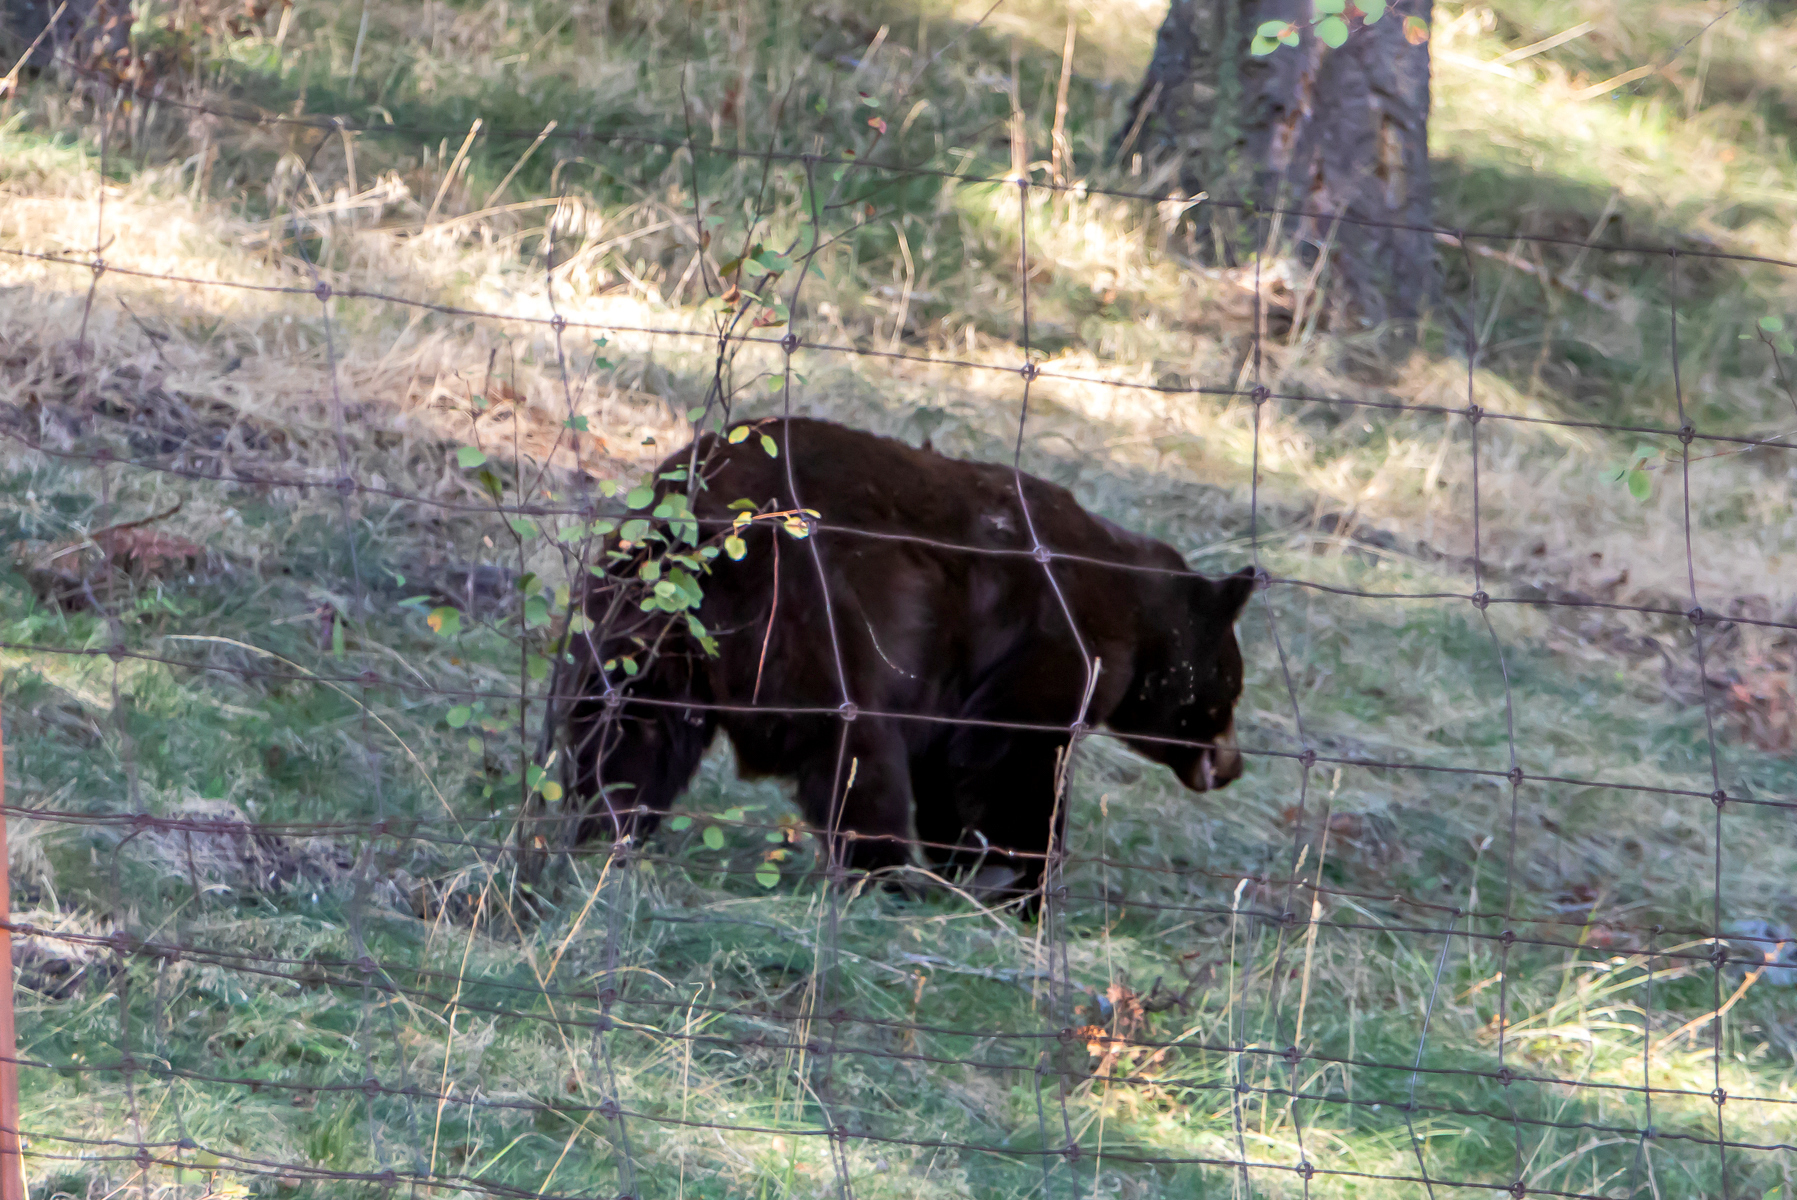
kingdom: Animalia
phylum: Chordata
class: Mammalia
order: Carnivora
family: Ursidae
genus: Ursus
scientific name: Ursus americanus
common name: American black bear
